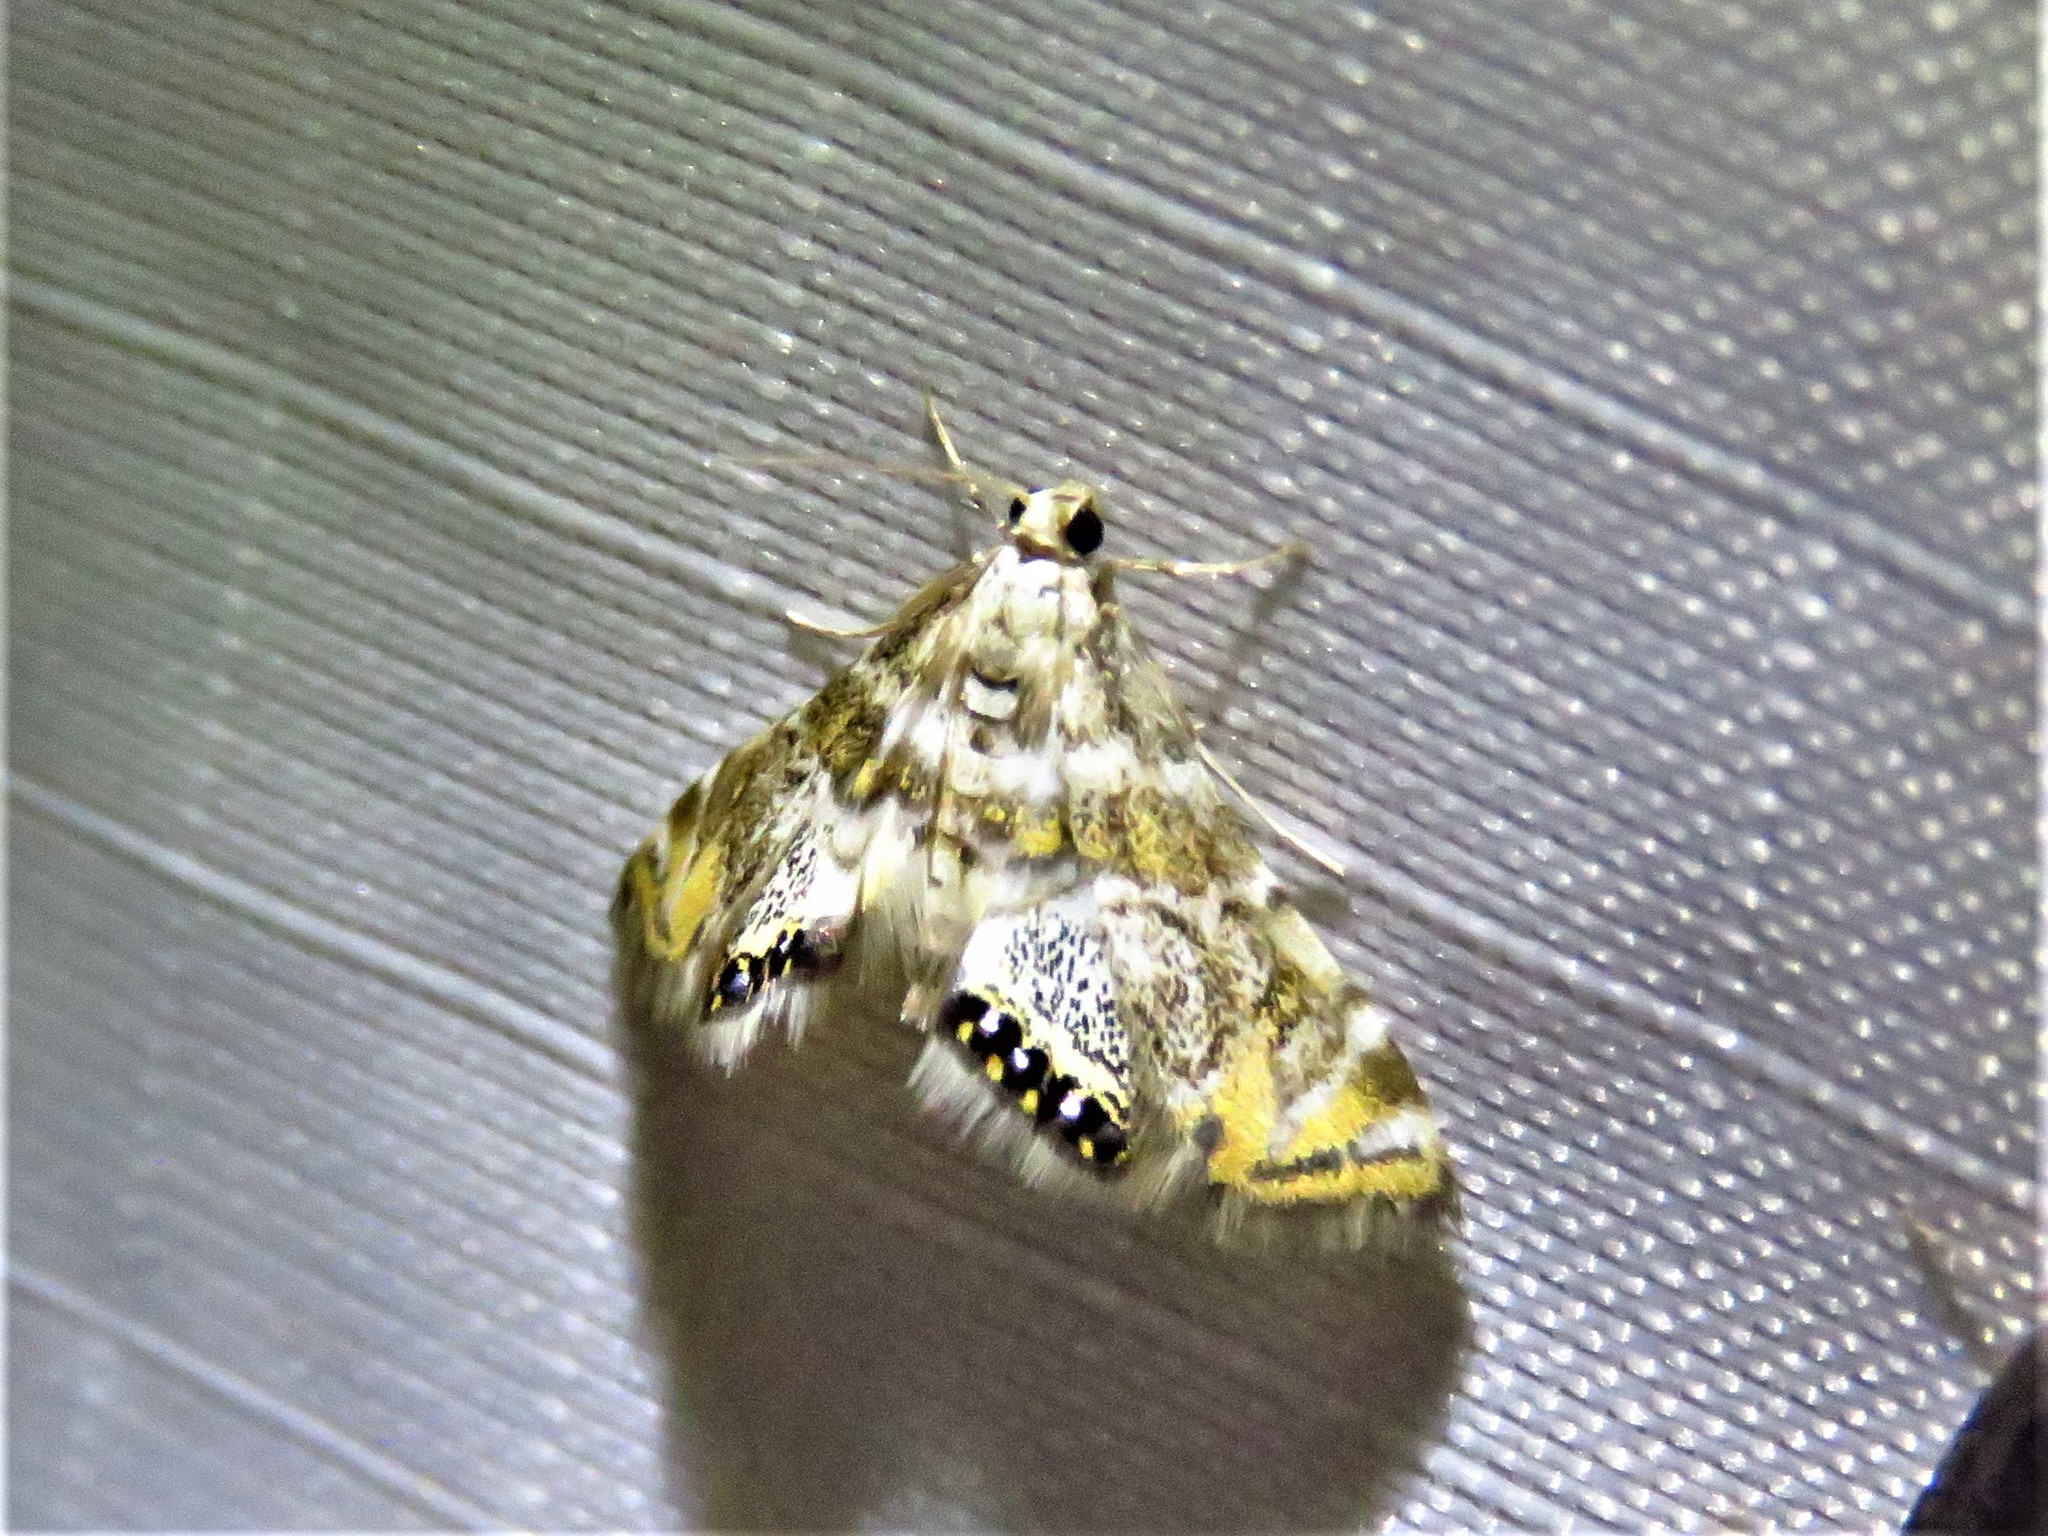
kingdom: Animalia
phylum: Arthropoda
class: Insecta
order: Lepidoptera
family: Crambidae
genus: Petrophila
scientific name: Petrophila heppneri
